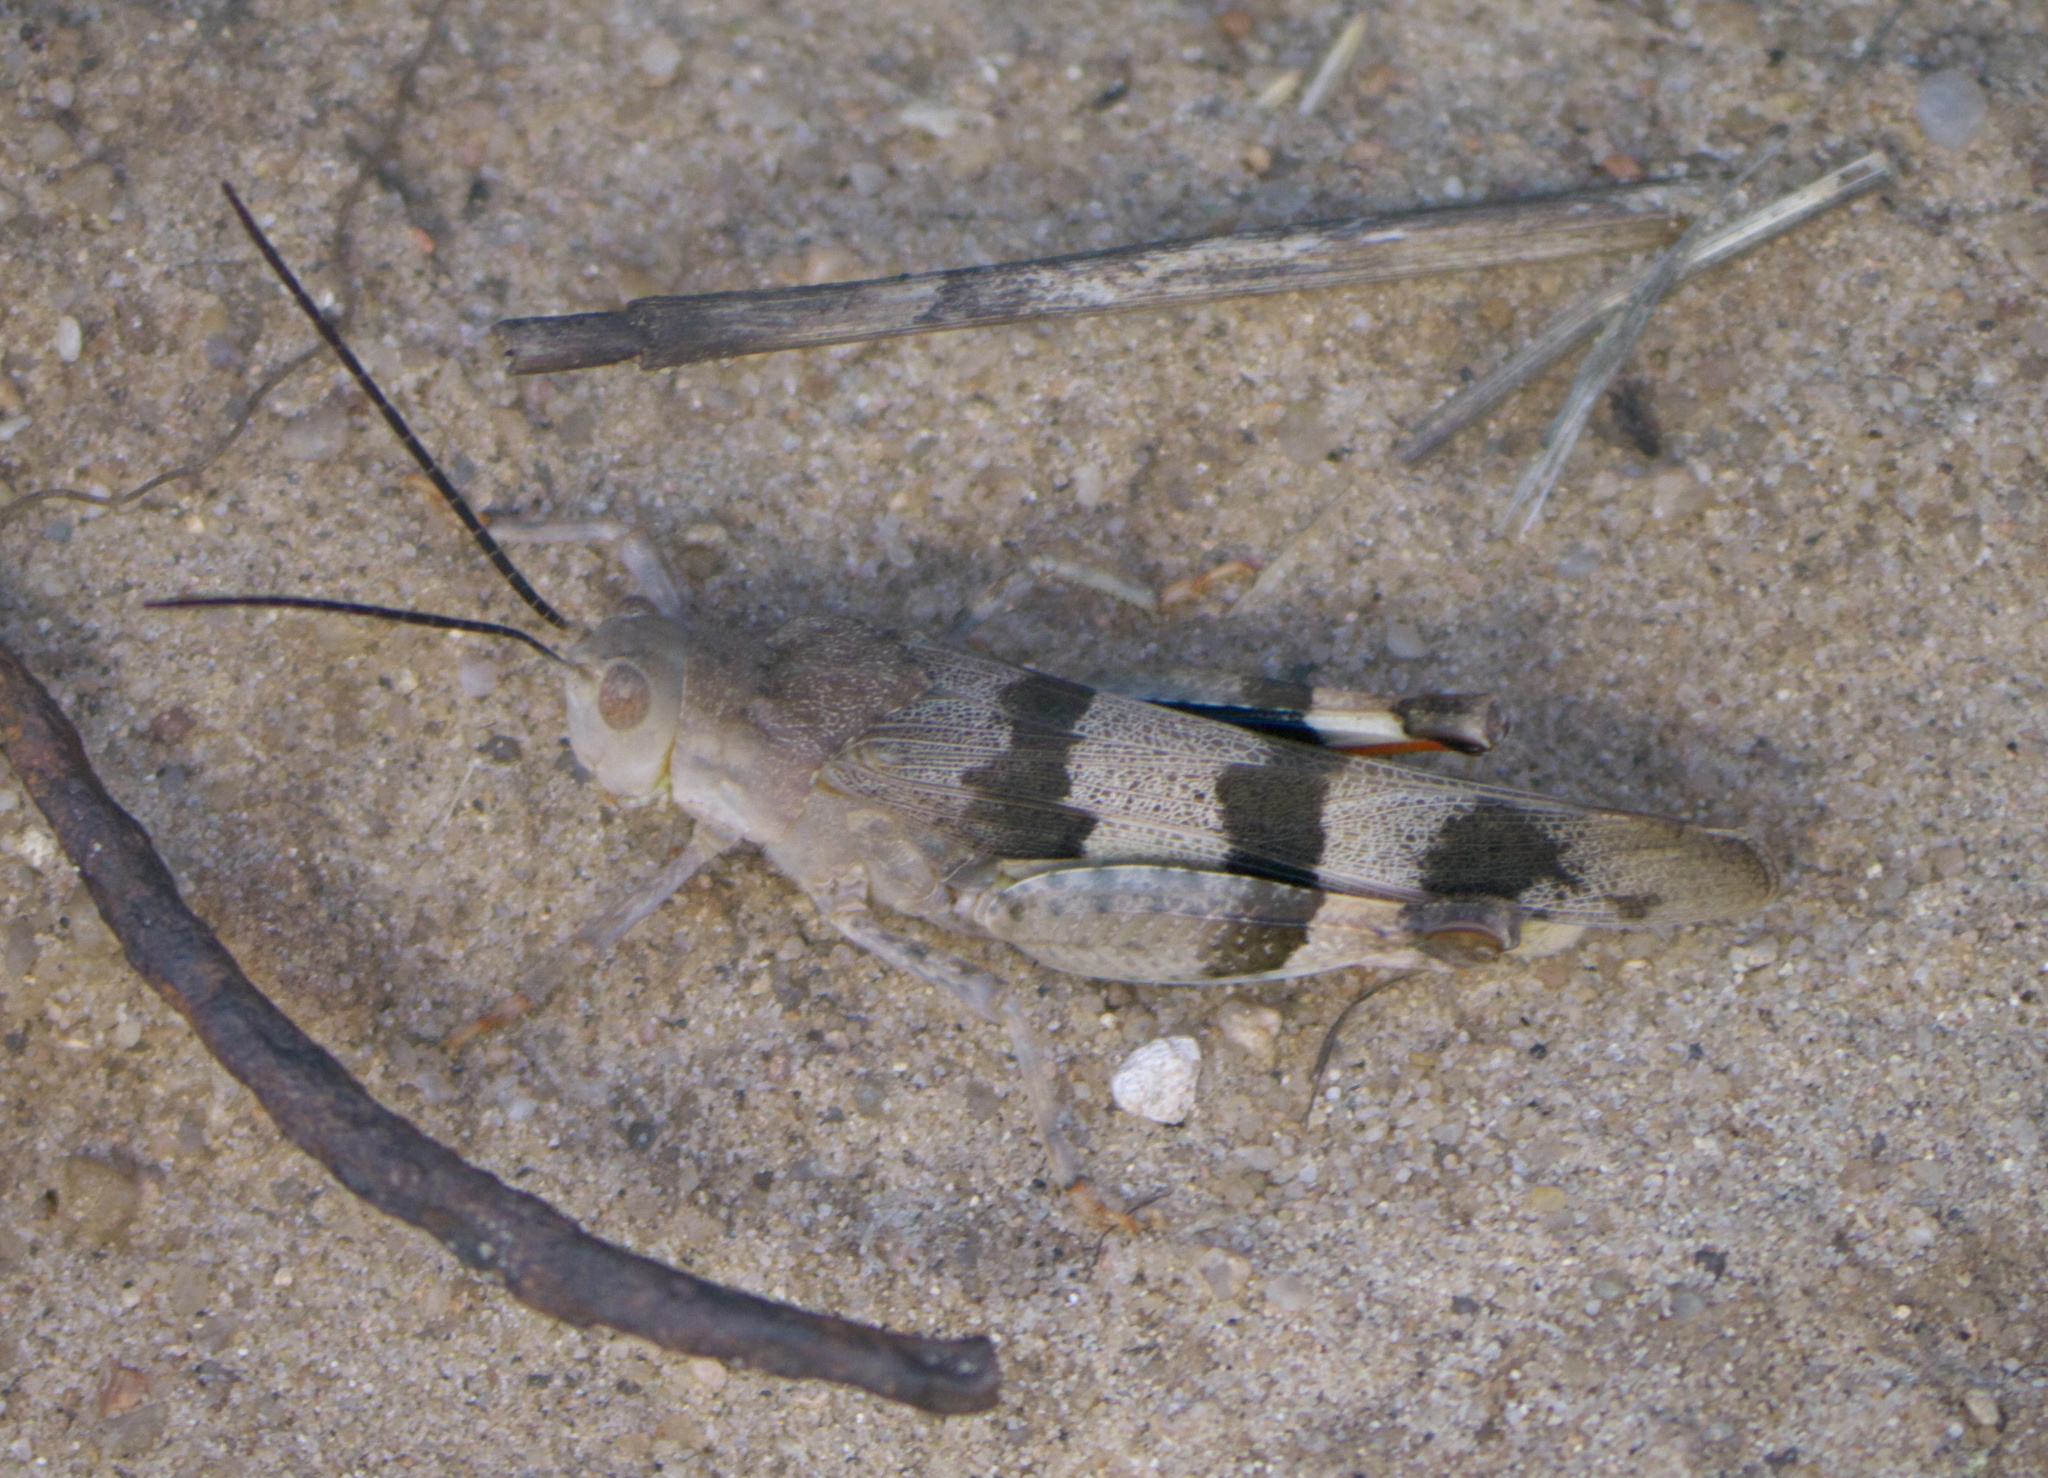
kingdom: Animalia
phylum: Arthropoda
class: Insecta
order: Orthoptera
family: Acrididae
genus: Hadrotettix
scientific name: Hadrotettix trifasciatus
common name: Threebanded grasshopper
